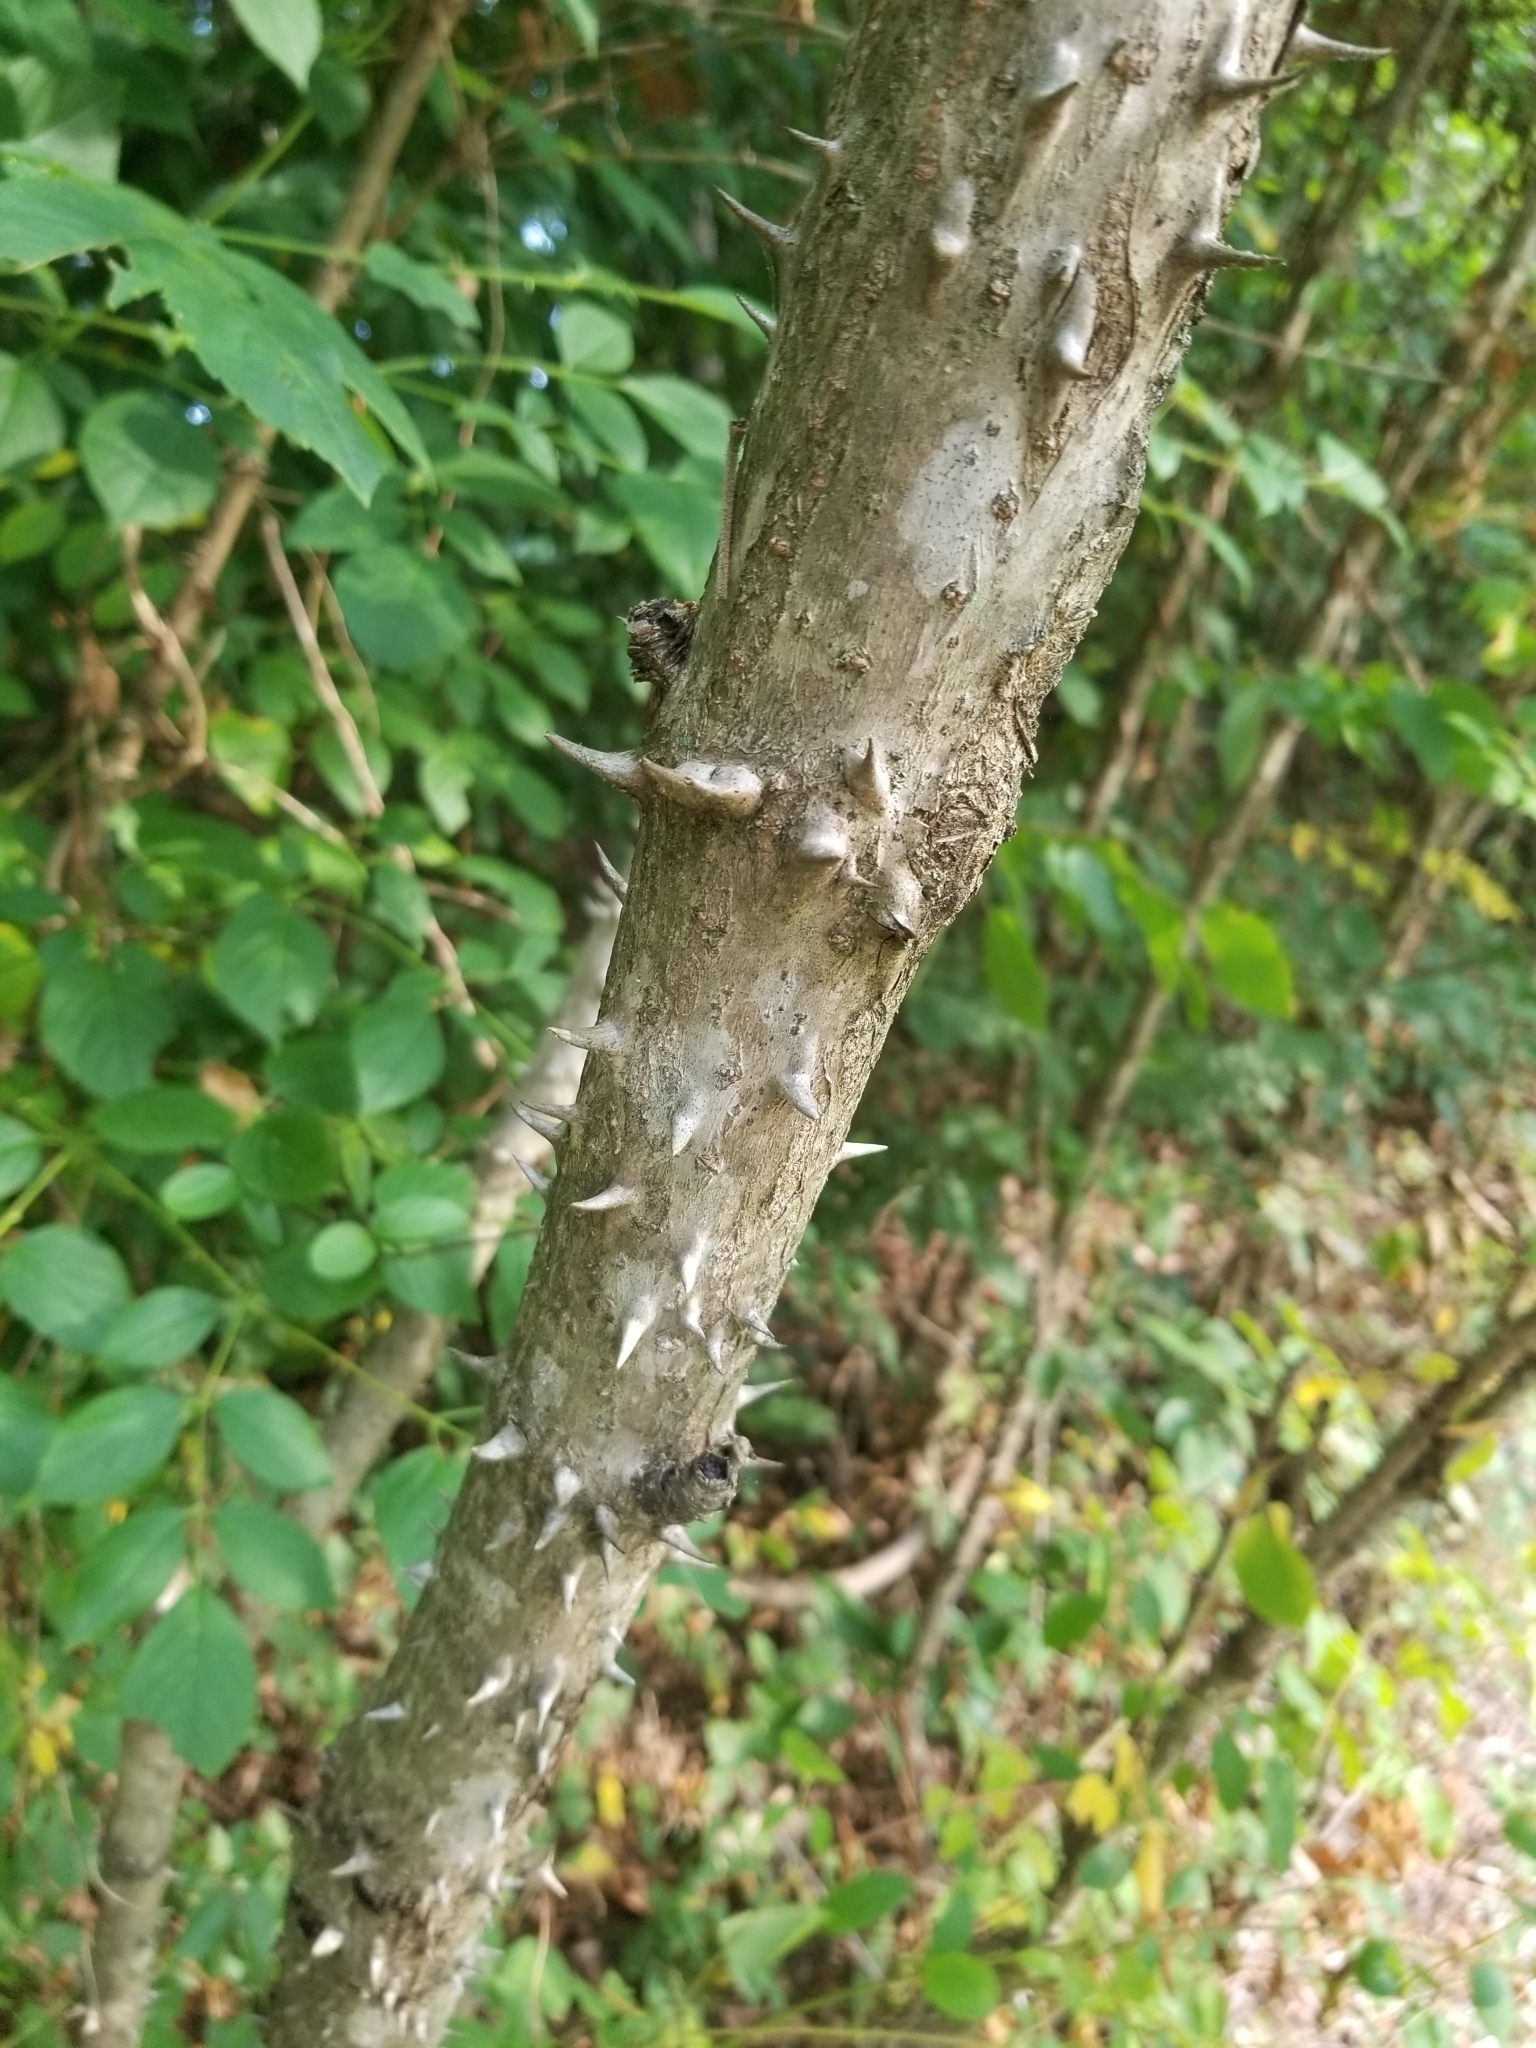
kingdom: Plantae
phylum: Tracheophyta
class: Magnoliopsida
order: Apiales
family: Araliaceae
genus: Aralia
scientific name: Aralia spinosa
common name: Hercules'-club
